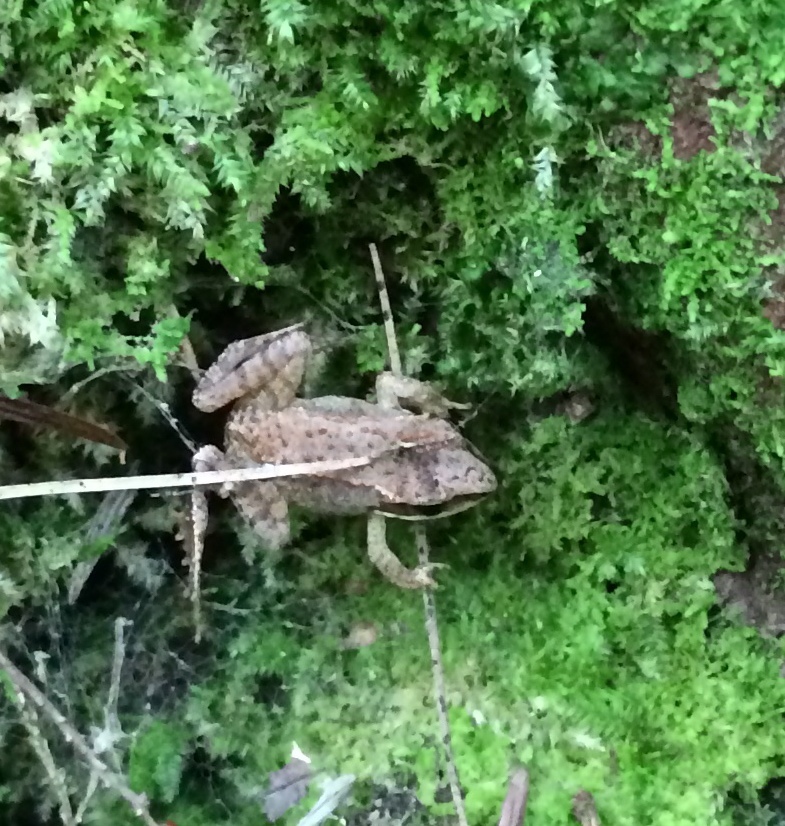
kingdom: Animalia
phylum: Chordata
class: Amphibia
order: Anura
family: Ranidae
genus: Lithobates
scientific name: Lithobates sylvaticus
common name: Wood frog
